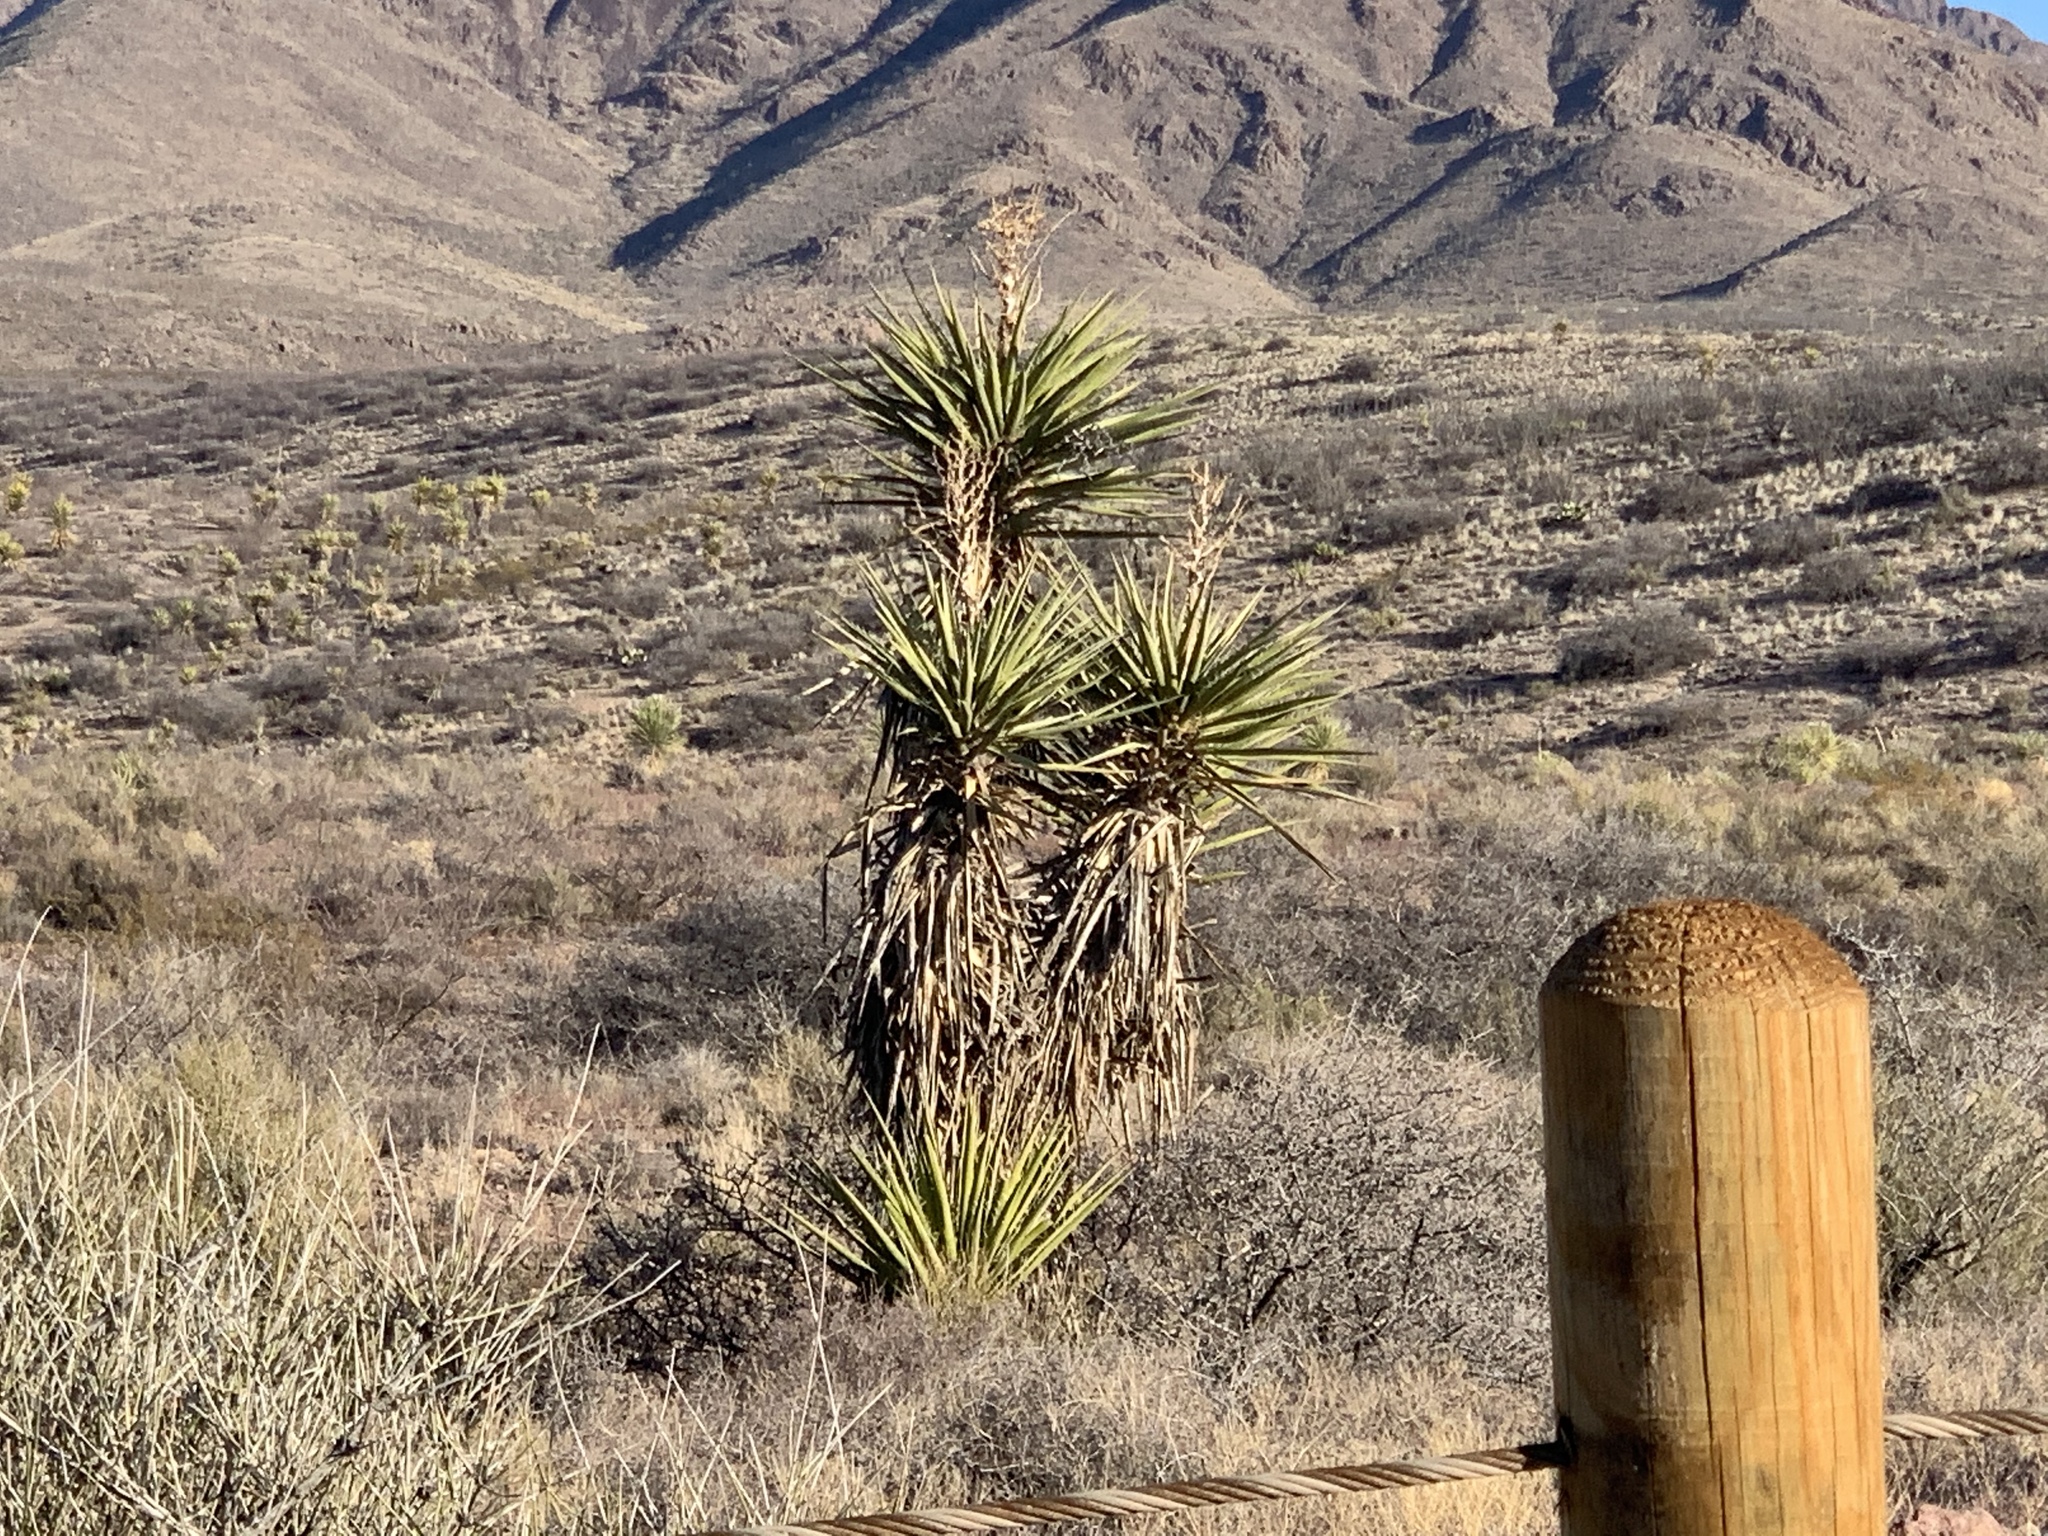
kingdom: Plantae
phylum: Tracheophyta
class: Liliopsida
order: Asparagales
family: Asparagaceae
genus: Yucca
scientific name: Yucca treculiana
